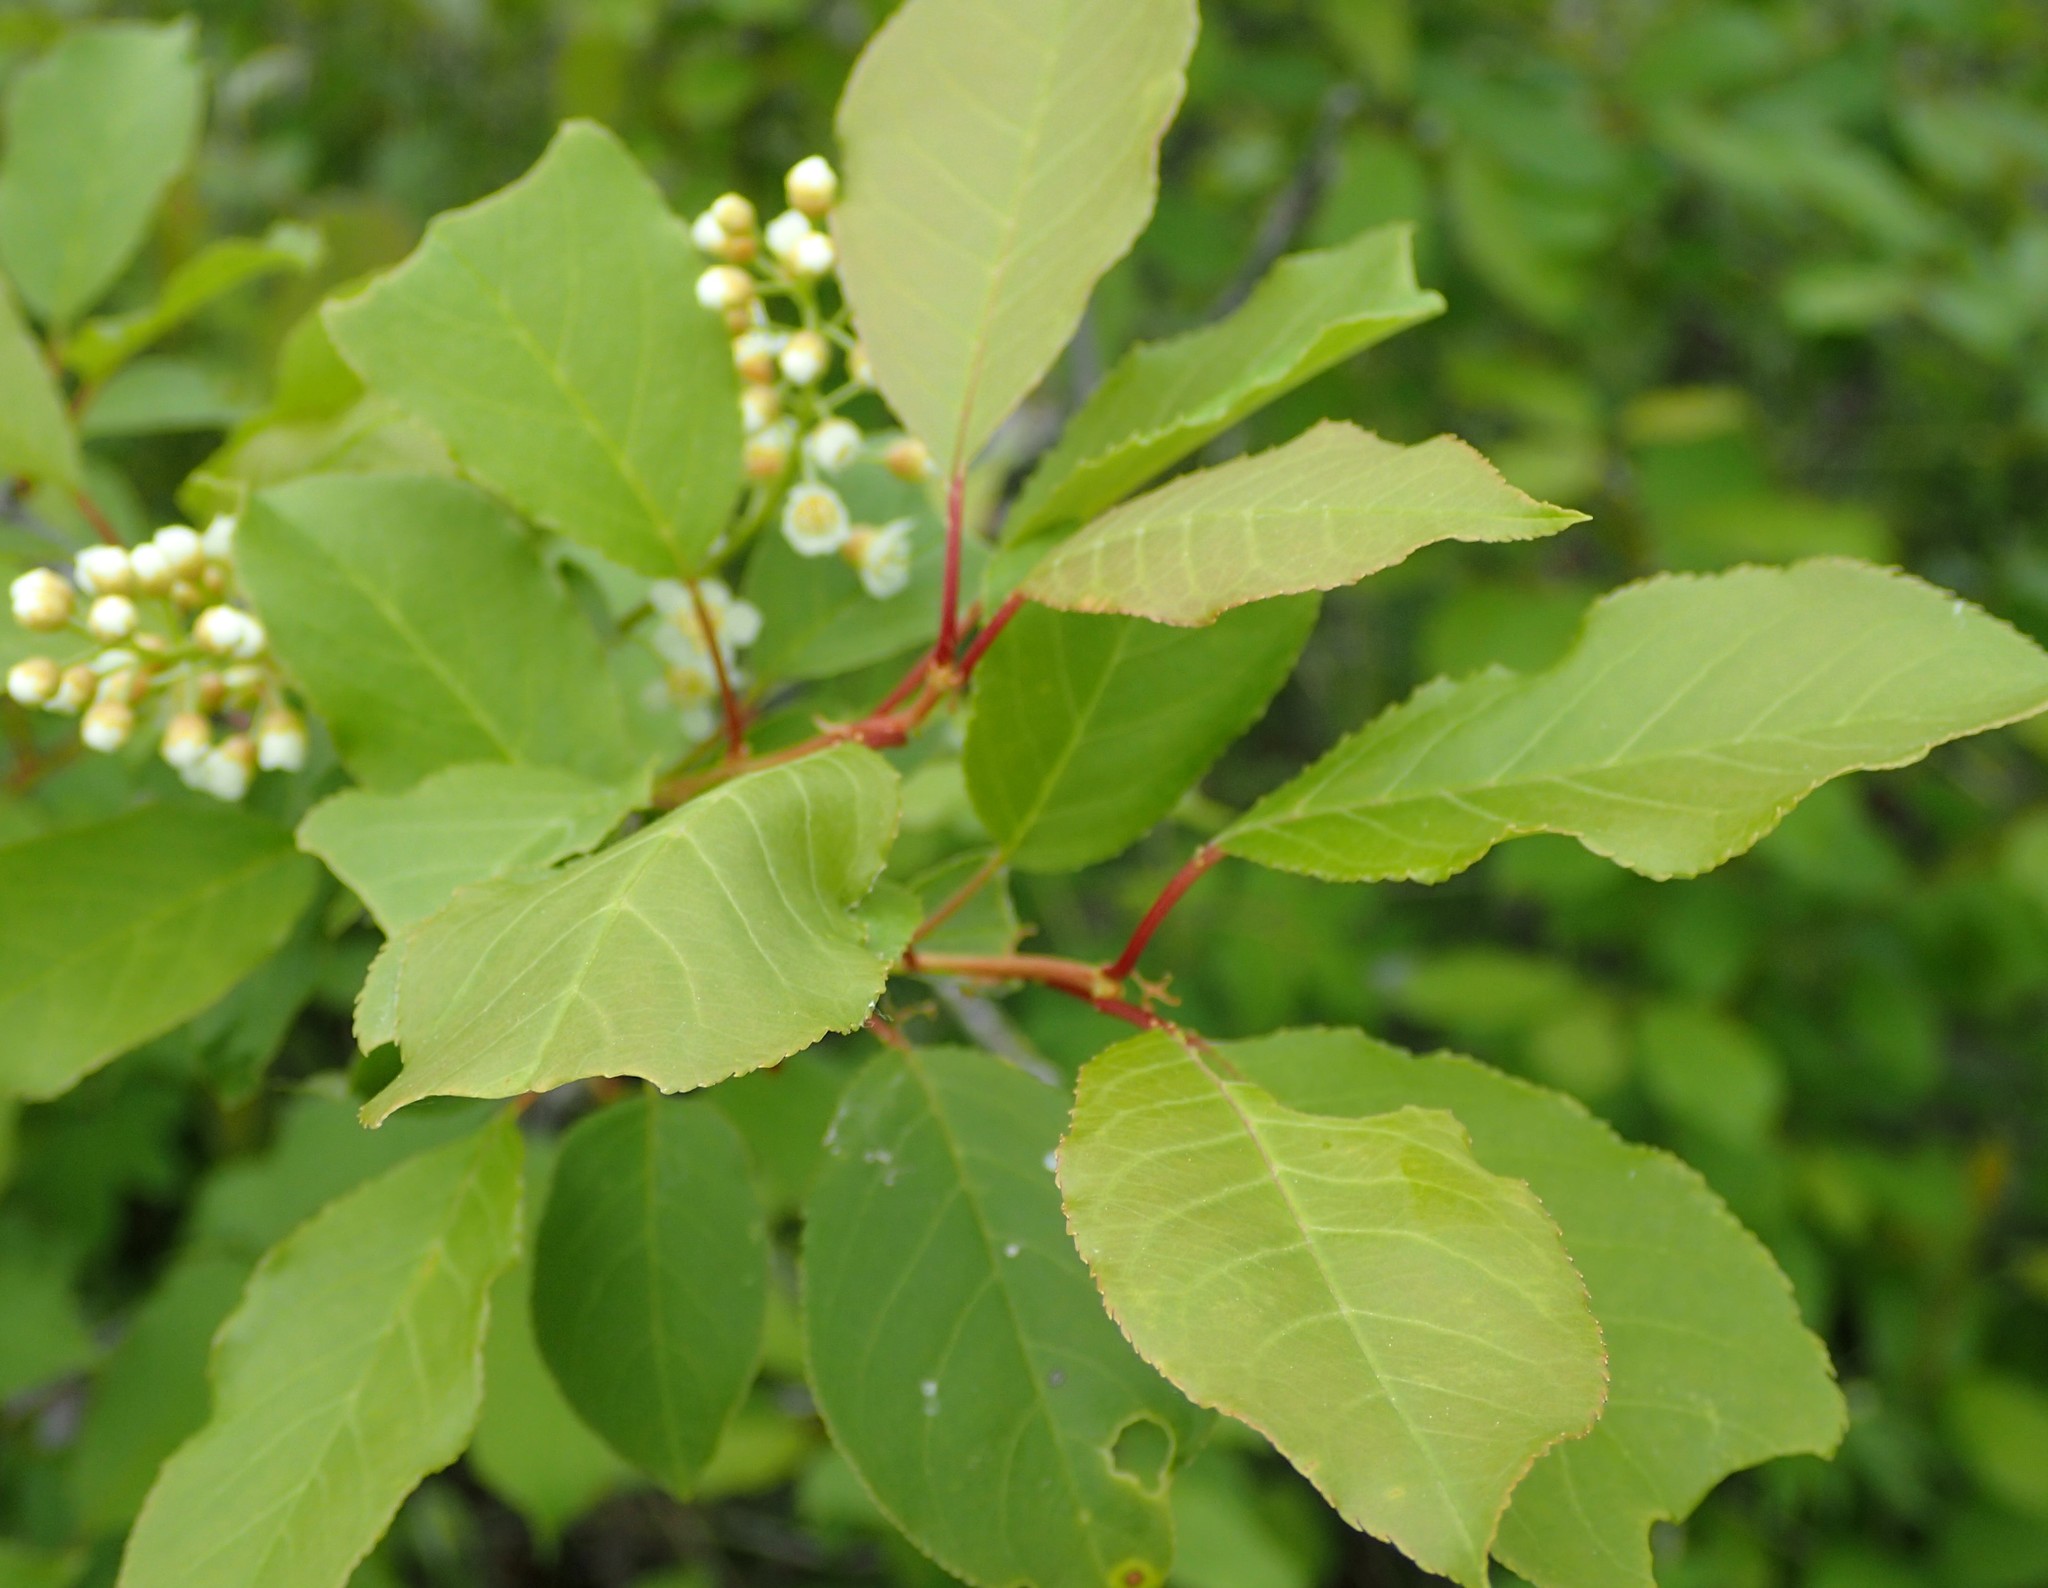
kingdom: Plantae
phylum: Tracheophyta
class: Magnoliopsida
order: Rosales
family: Rosaceae
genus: Prunus
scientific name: Prunus virginiana
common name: Chokecherry
